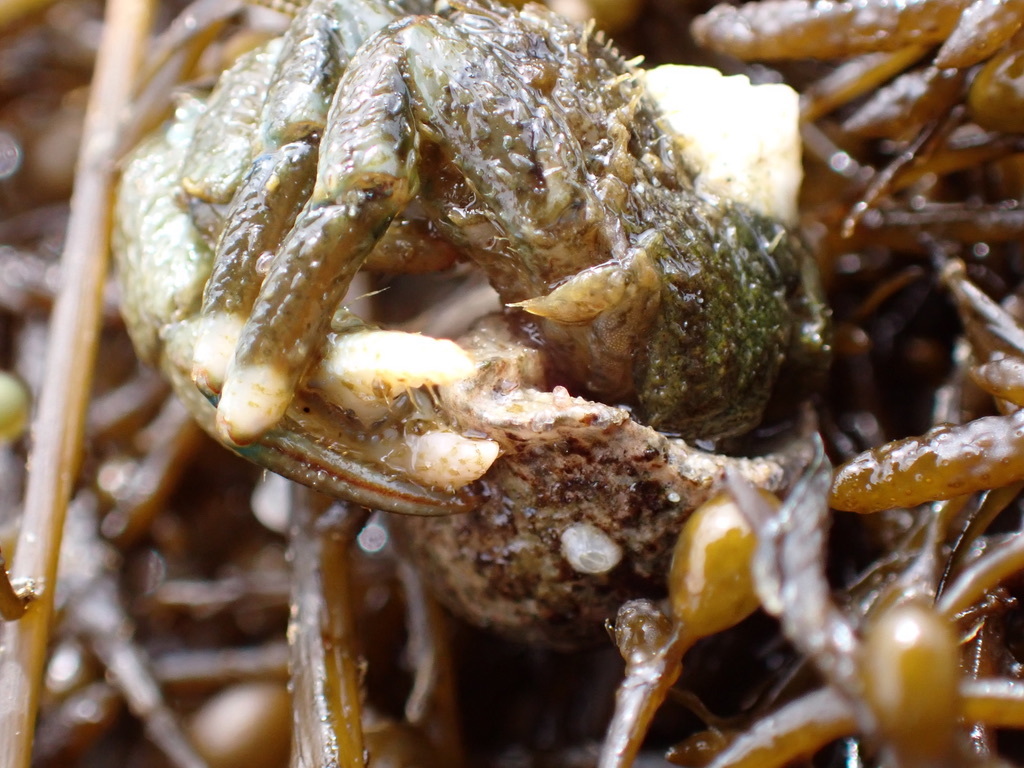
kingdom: Animalia
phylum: Arthropoda
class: Malacostraca
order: Decapoda
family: Paguridae
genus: Pagurus
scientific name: Pagurus hirsutiusculus
